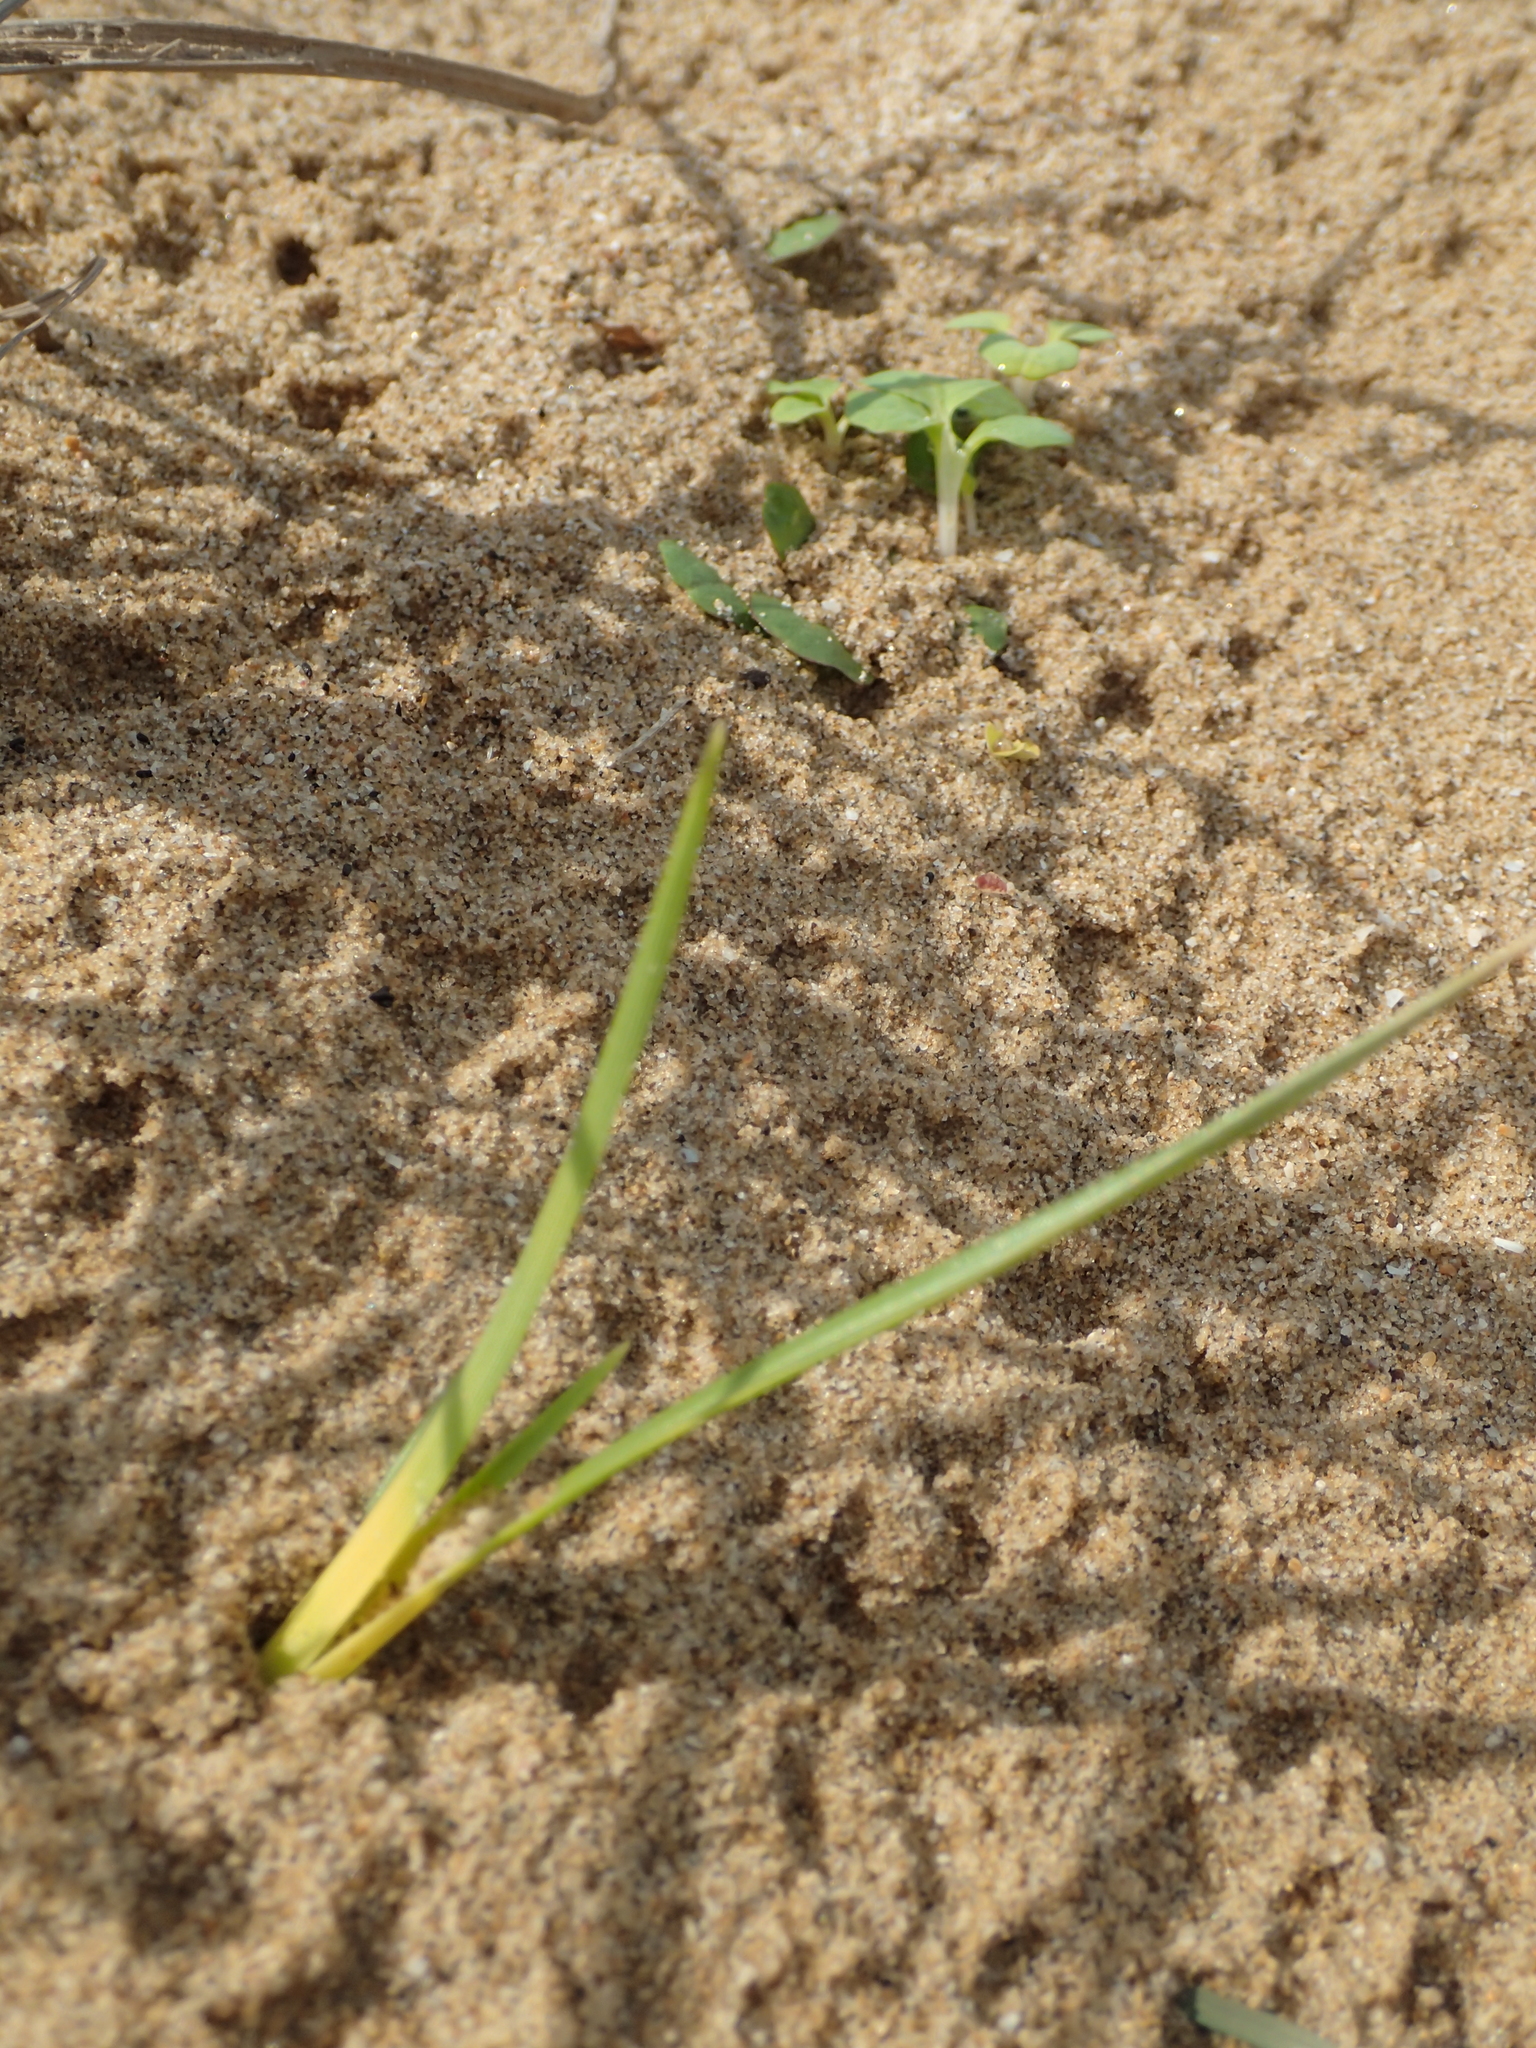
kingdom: Plantae
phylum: Tracheophyta
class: Liliopsida
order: Poales
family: Cyperaceae
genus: Carex
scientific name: Carex kobomugi
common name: Japanese sedge
